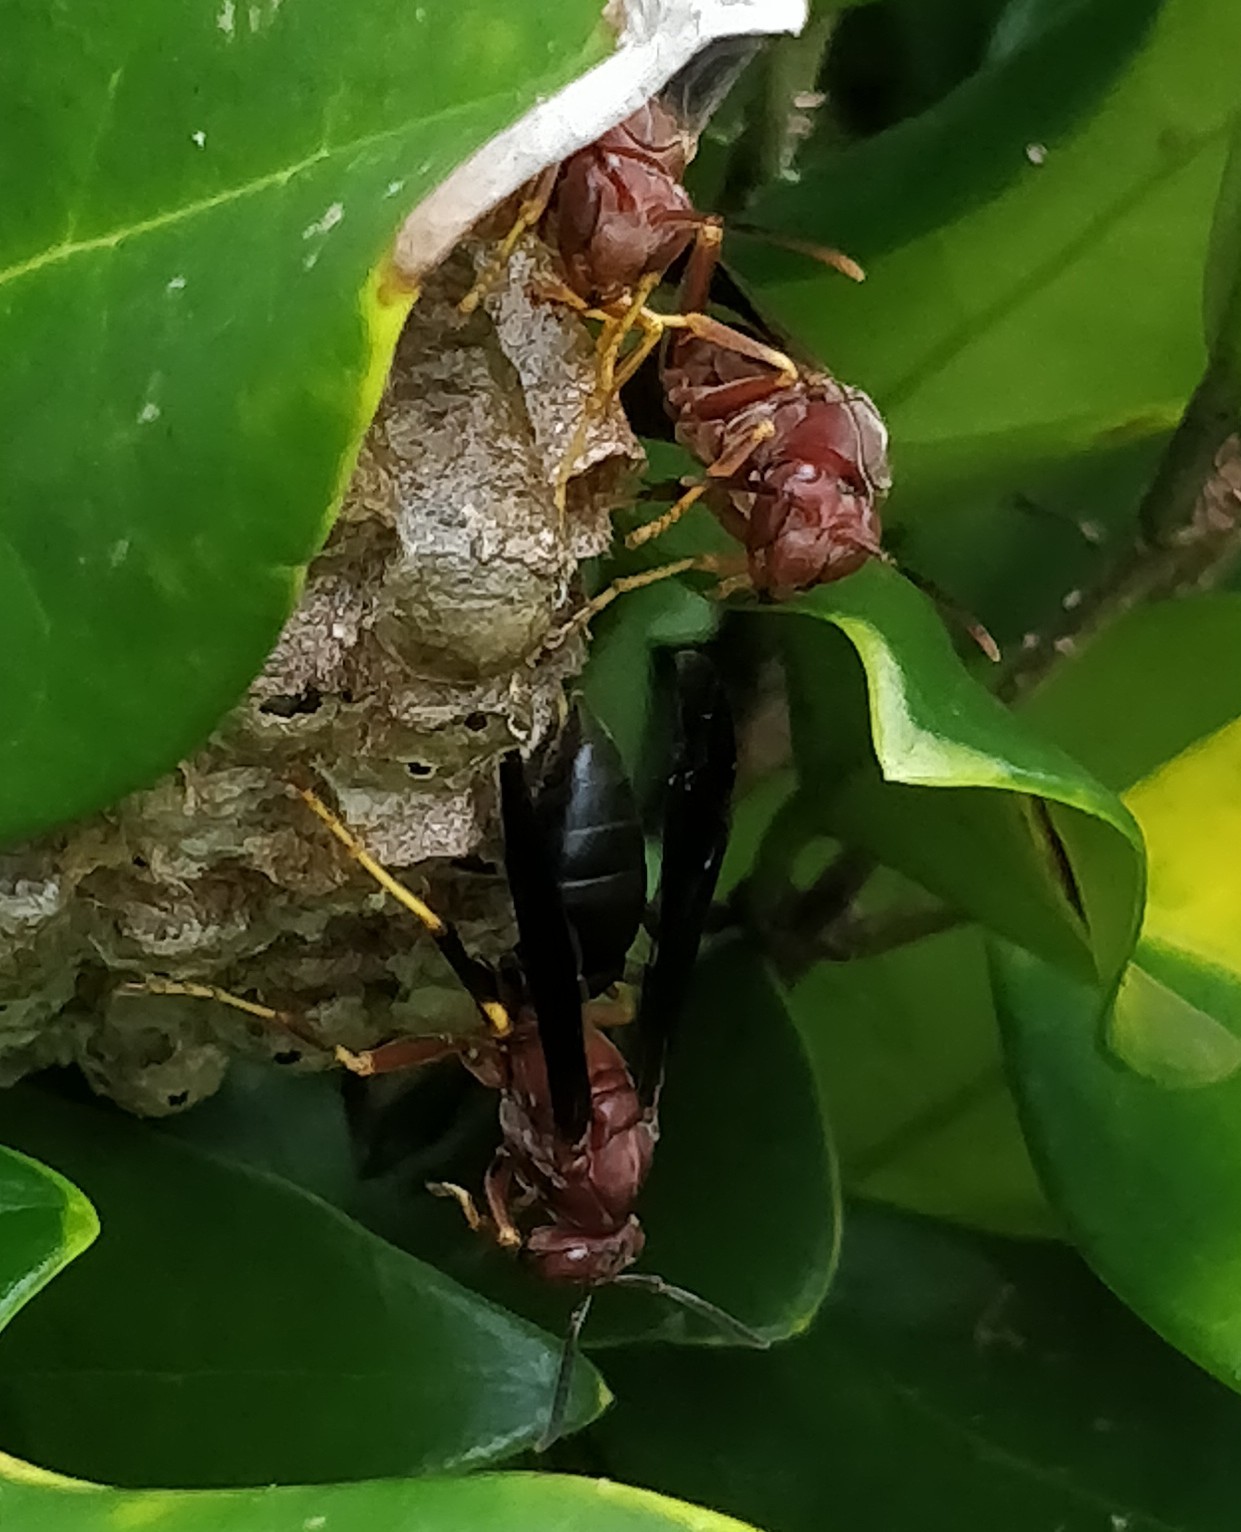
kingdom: Animalia
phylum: Arthropoda
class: Insecta
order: Hymenoptera
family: Eumenidae
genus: Polistes
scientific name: Polistes metricus
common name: Metric paper wasp
